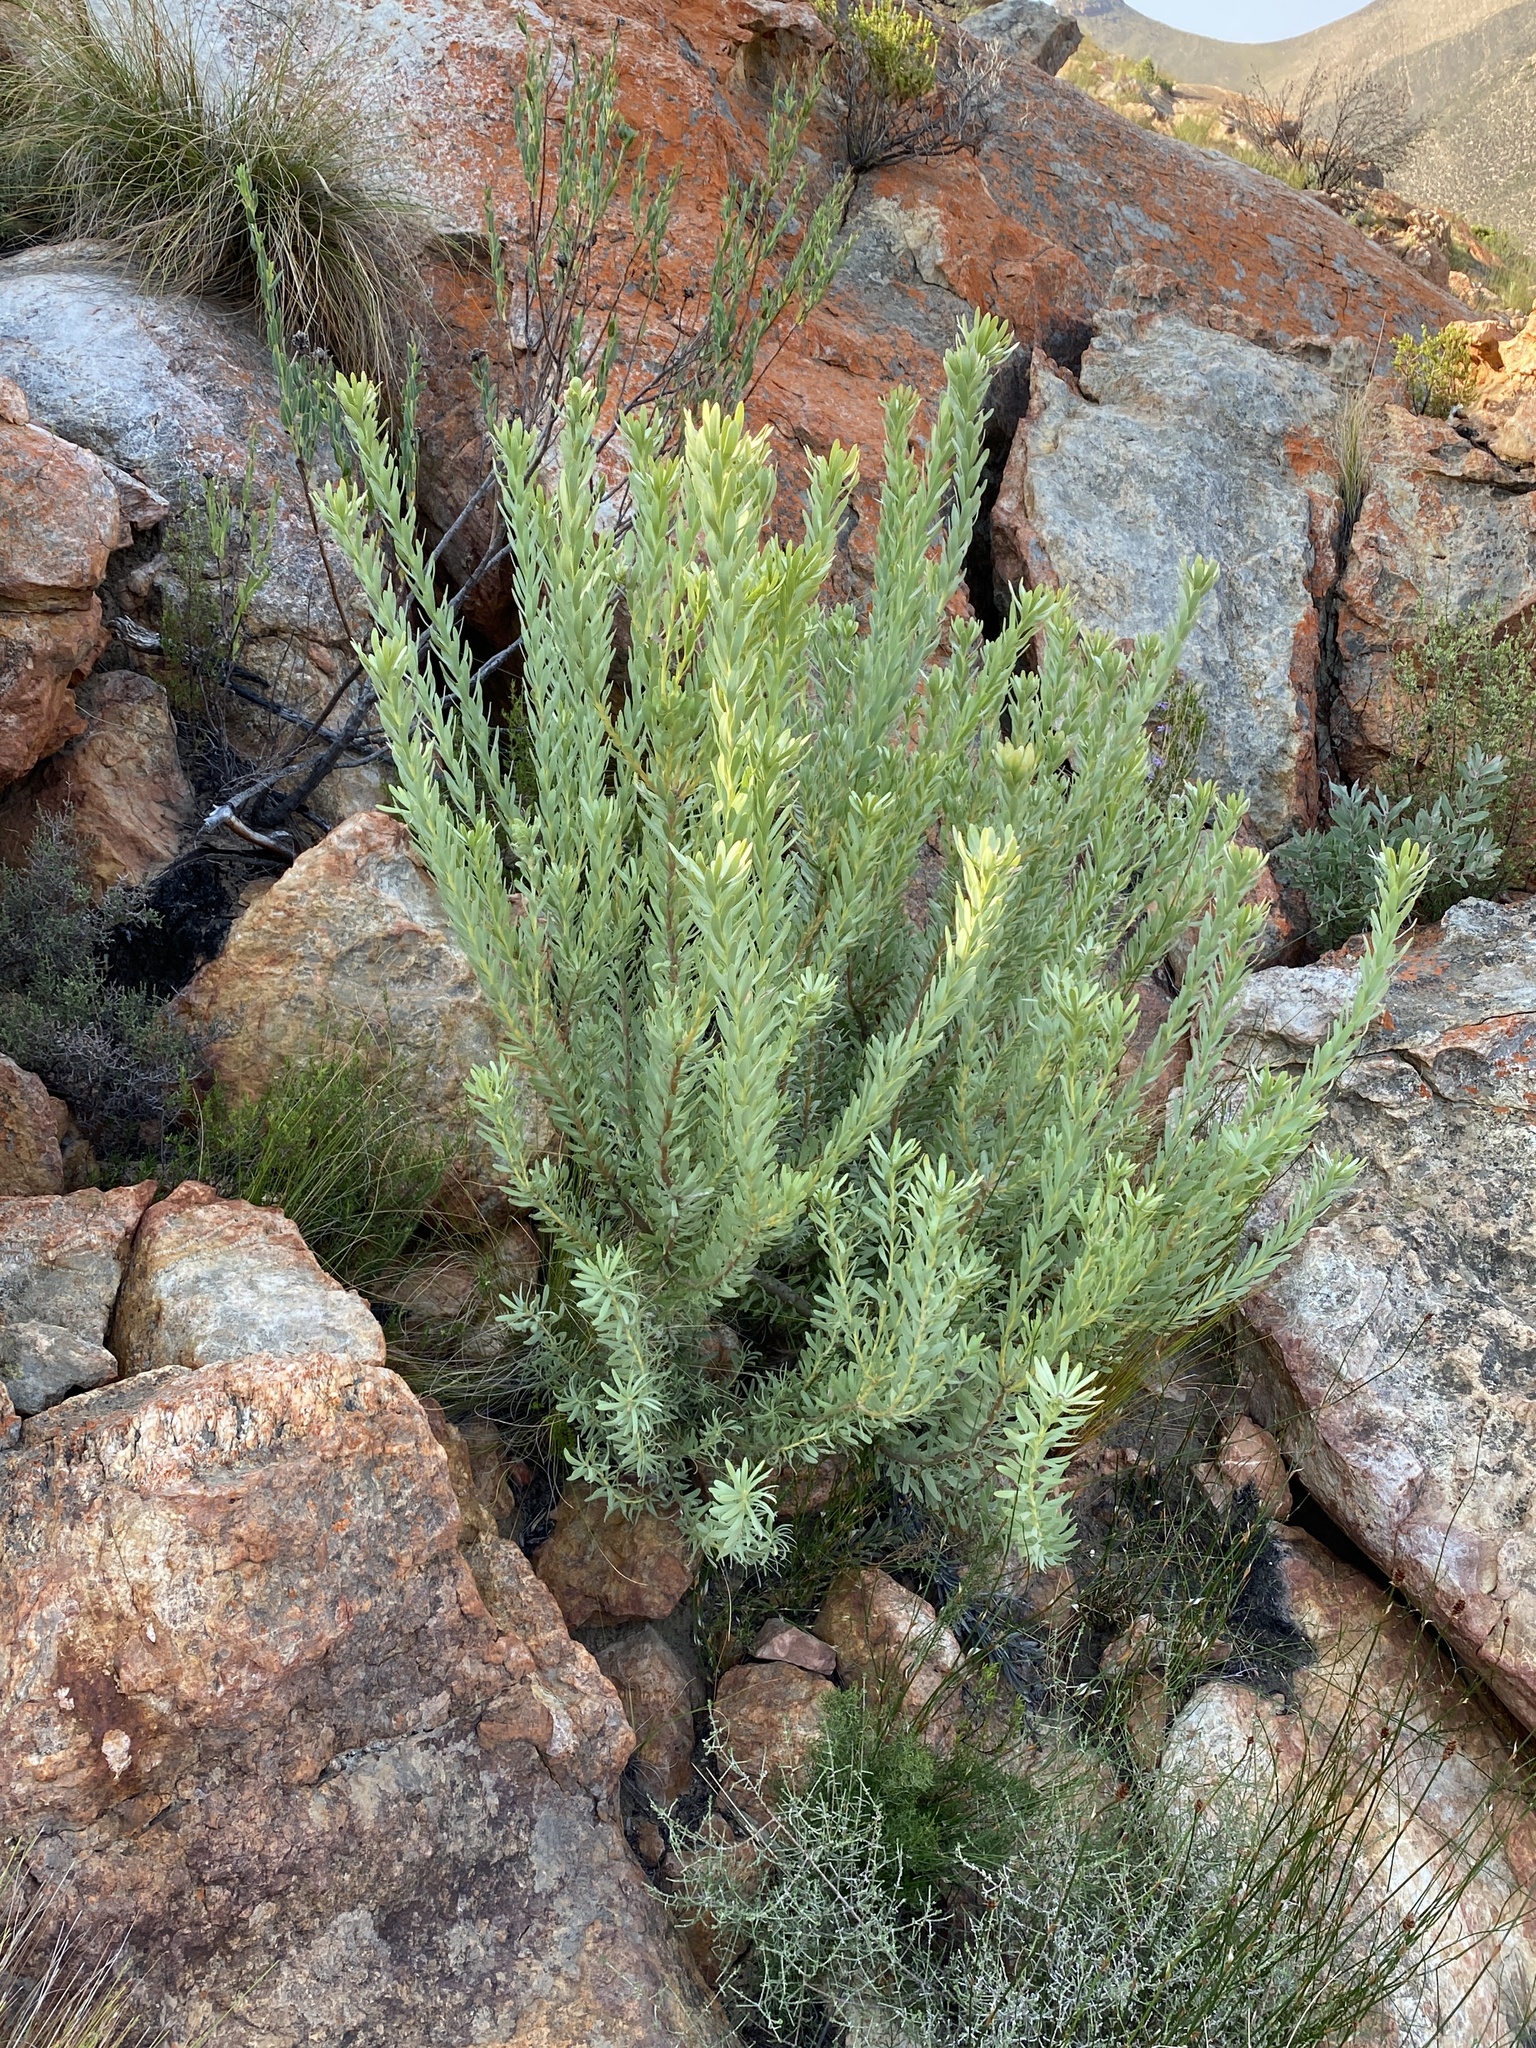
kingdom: Plantae
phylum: Tracheophyta
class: Magnoliopsida
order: Proteales
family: Proteaceae
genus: Leucadendron
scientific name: Leucadendron pubescens
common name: Grey conebush
